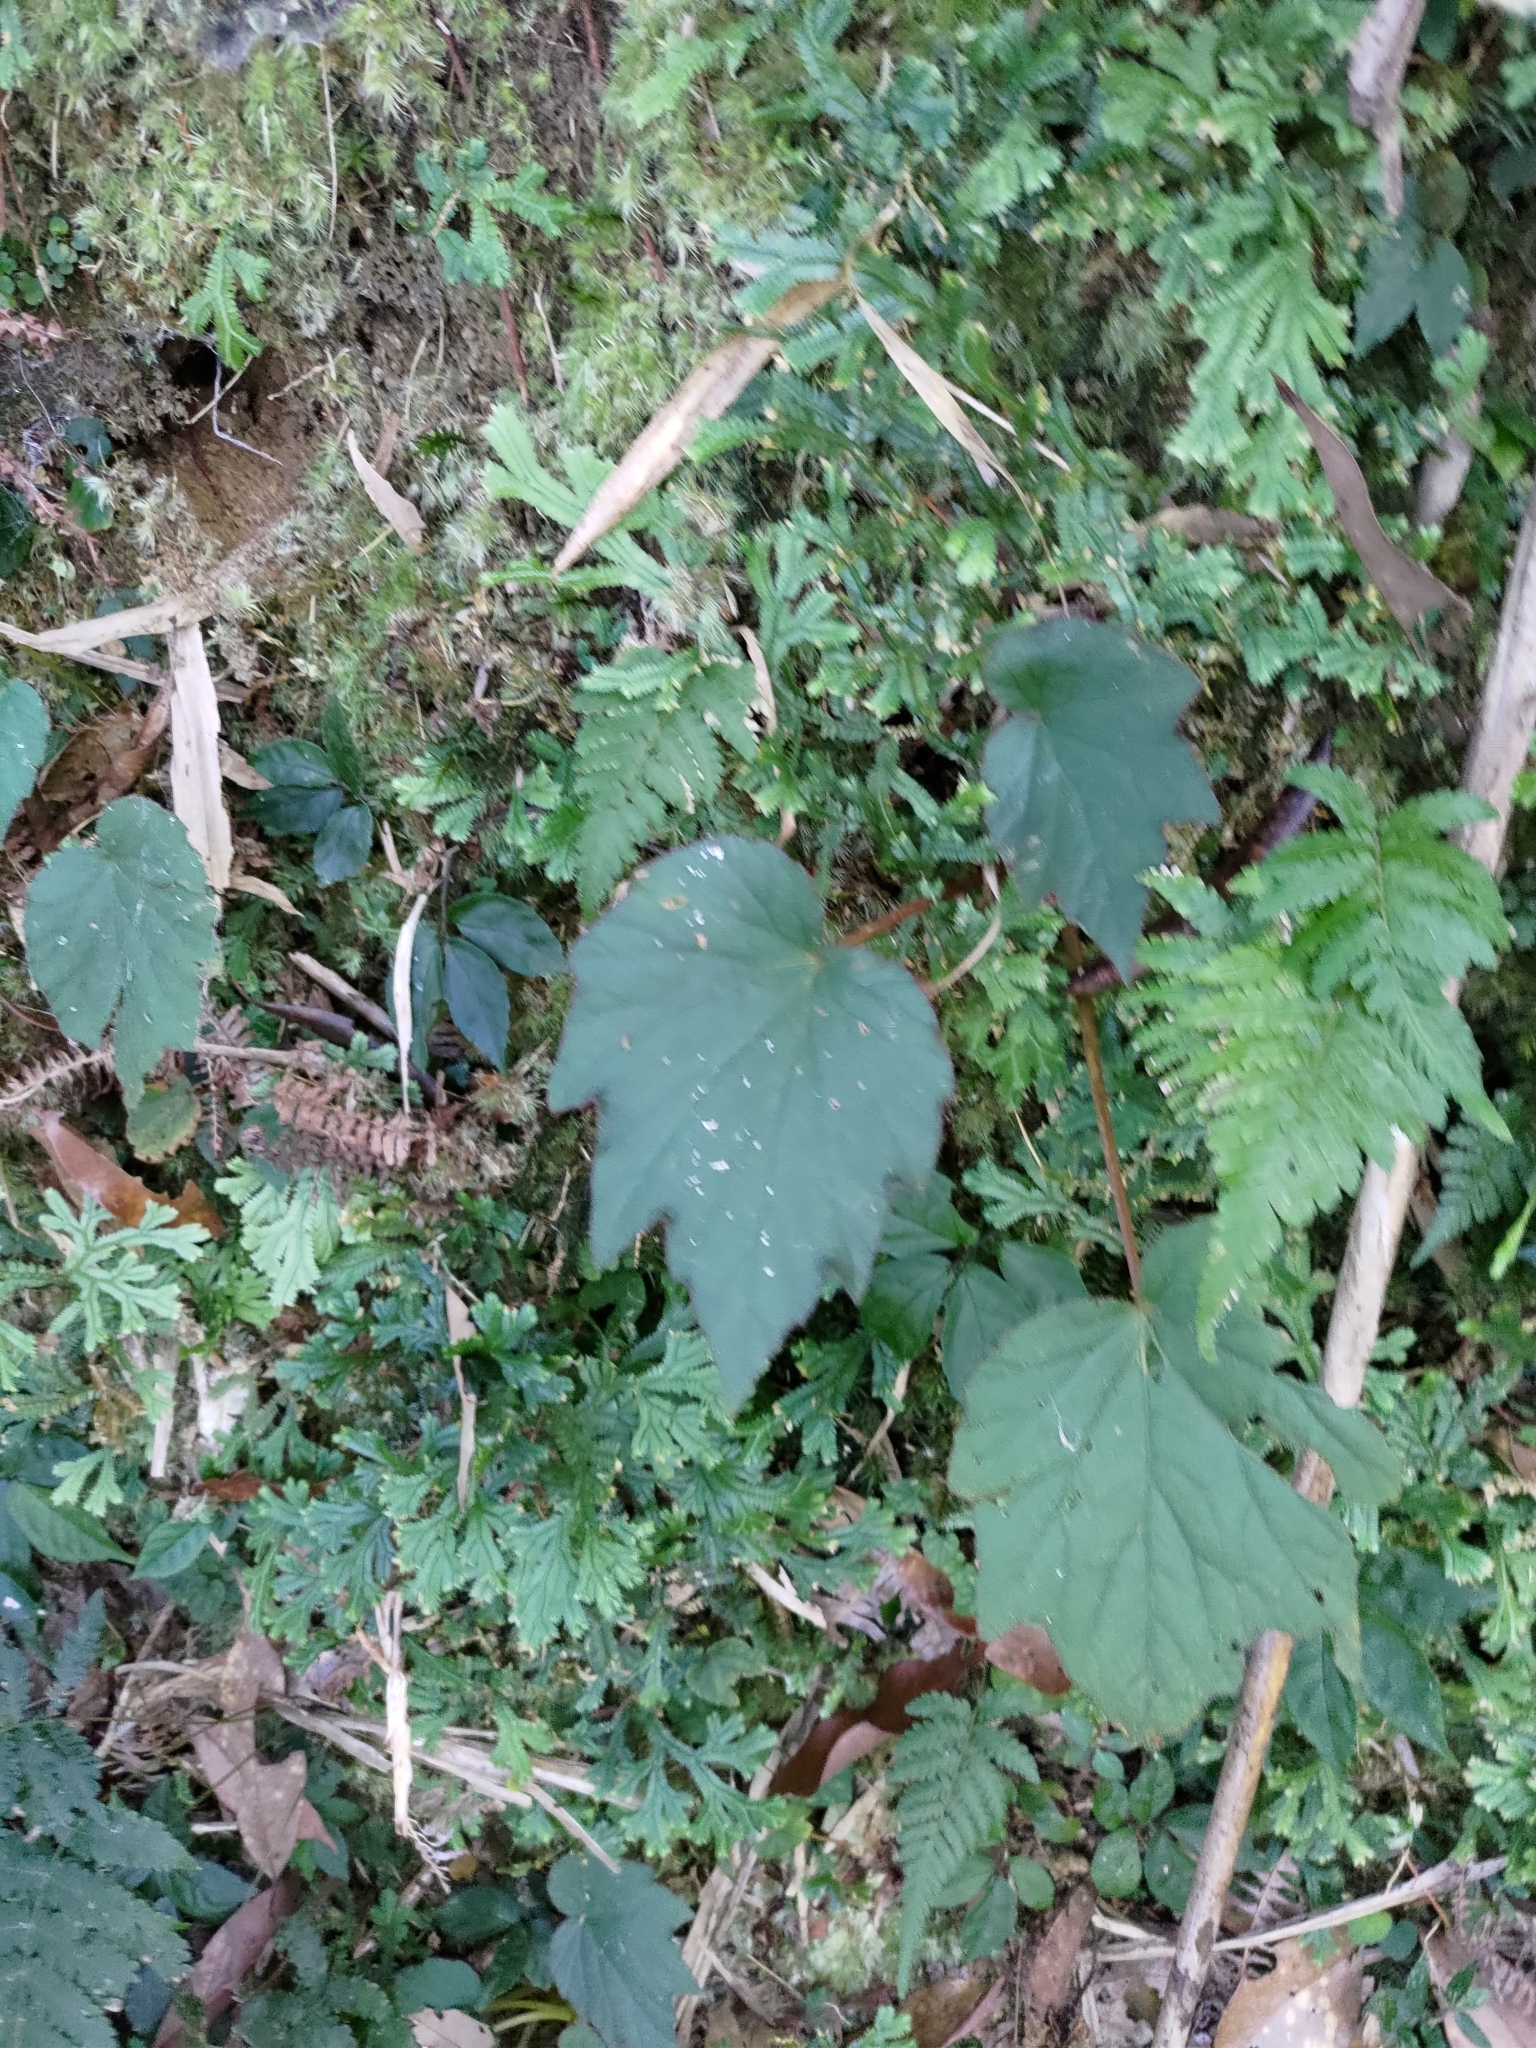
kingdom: Plantae
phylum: Tracheophyta
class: Magnoliopsida
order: Cucurbitales
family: Begoniaceae
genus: Begonia
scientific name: Begonia palmata
